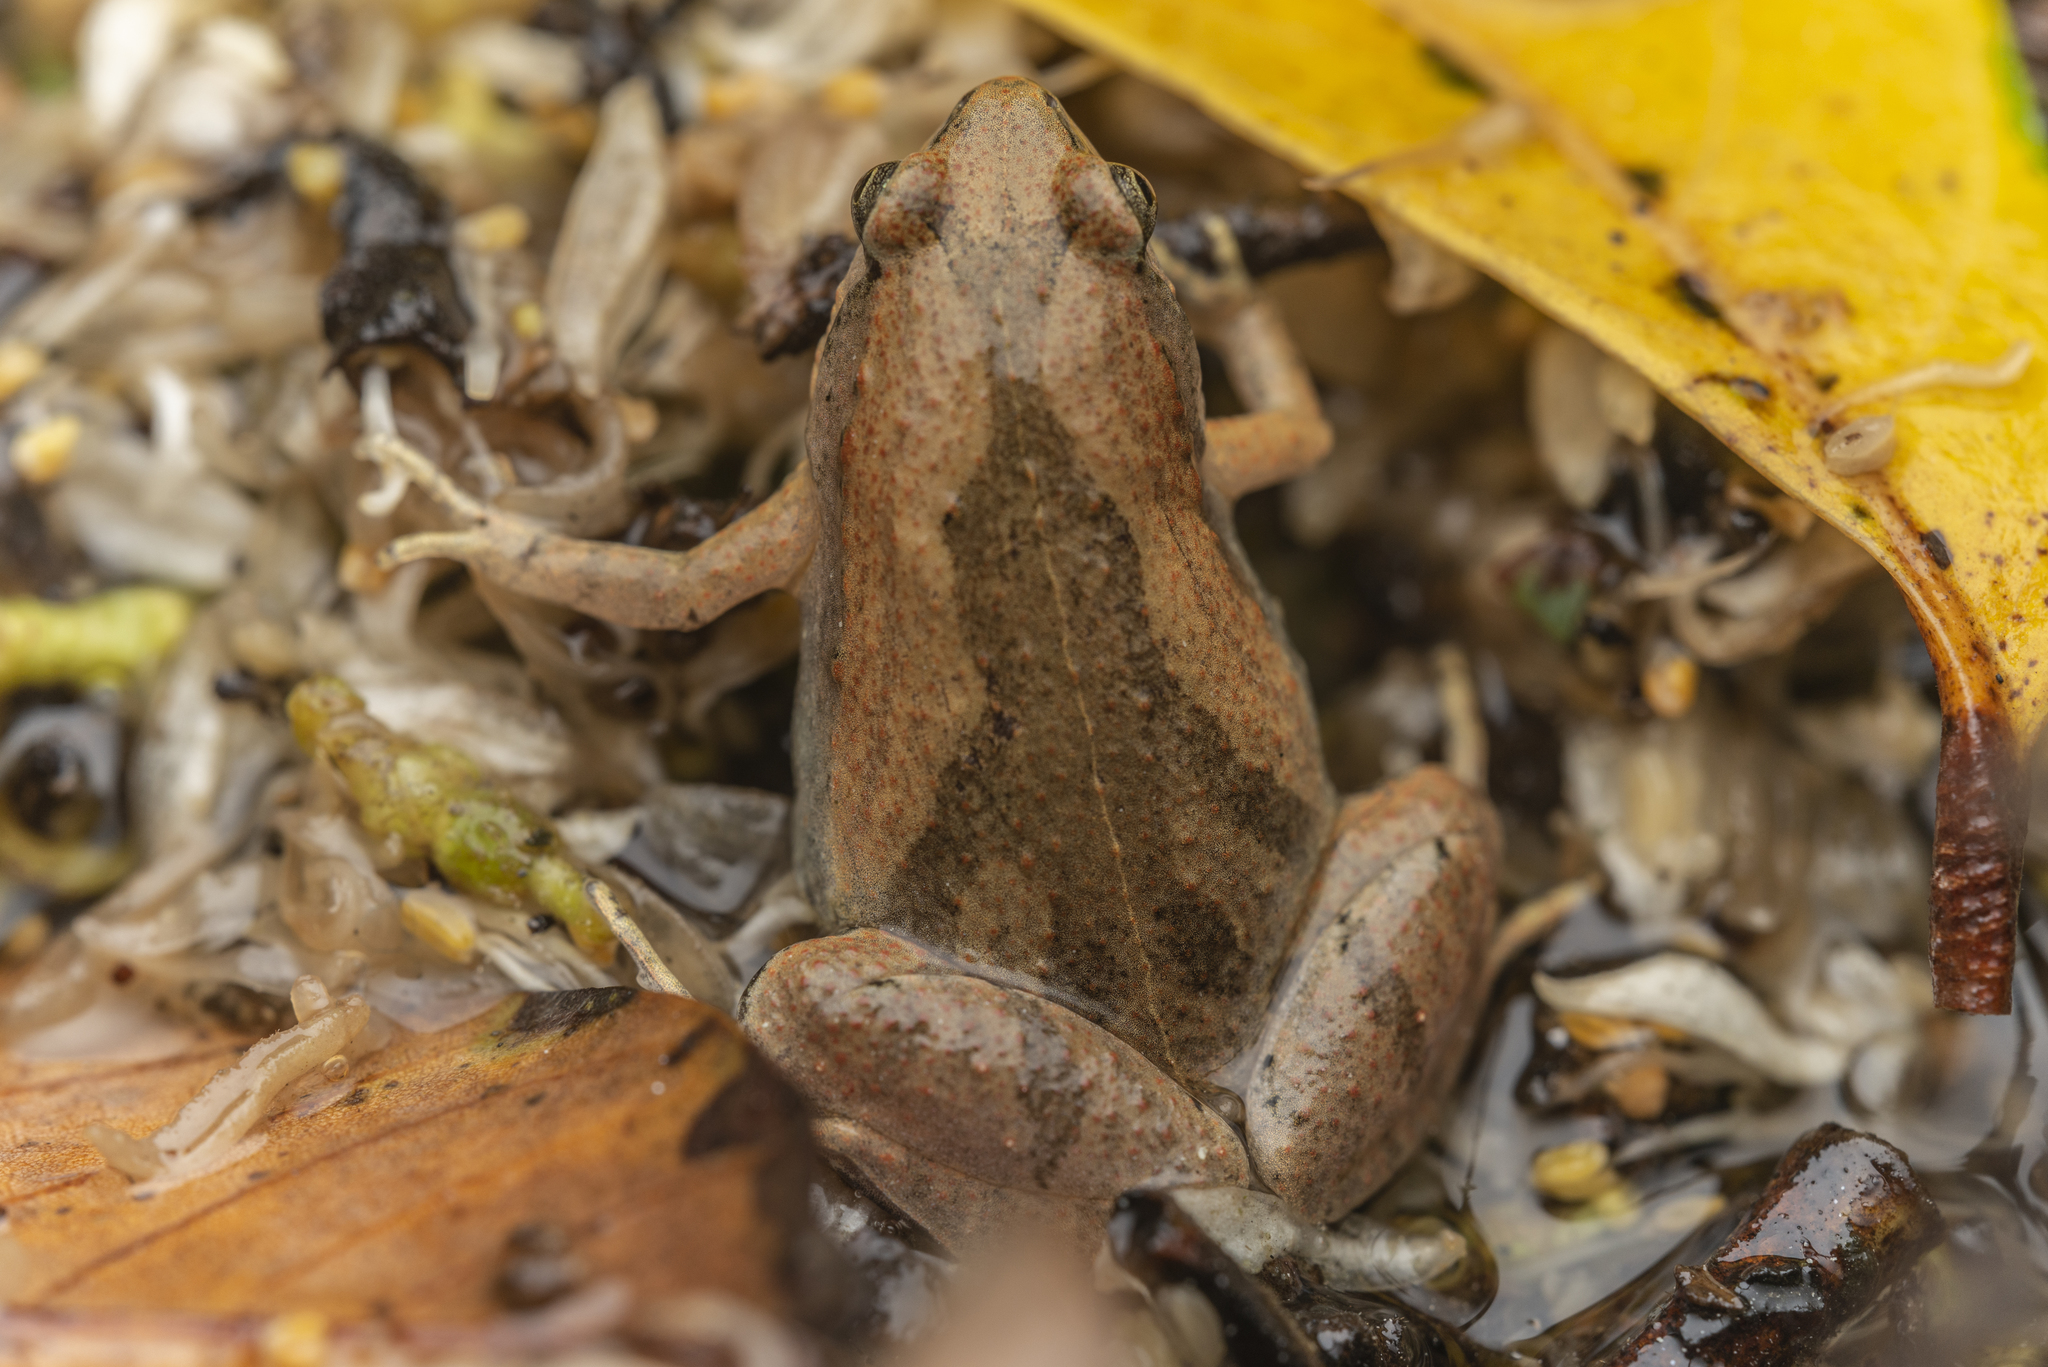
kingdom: Animalia
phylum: Chordata
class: Amphibia
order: Anura
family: Microhylidae
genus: Microhyla
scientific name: Microhyla fissipes
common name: Ornate narrow-mouthed frog
